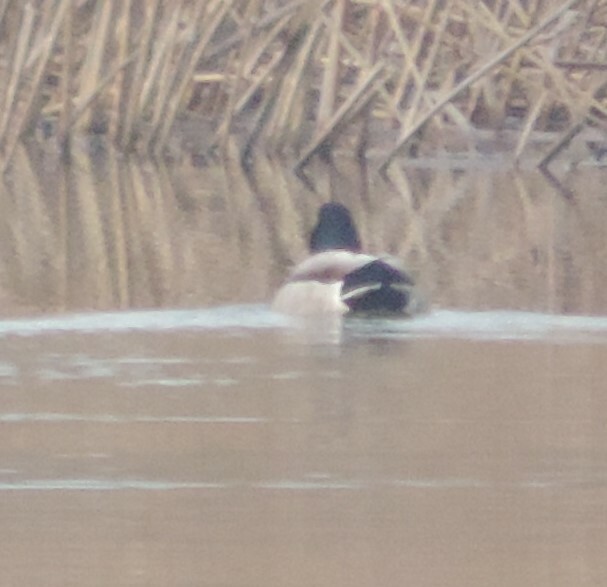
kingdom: Animalia
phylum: Chordata
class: Aves
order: Anseriformes
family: Anatidae
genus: Anas
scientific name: Anas platyrhynchos
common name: Mallard
